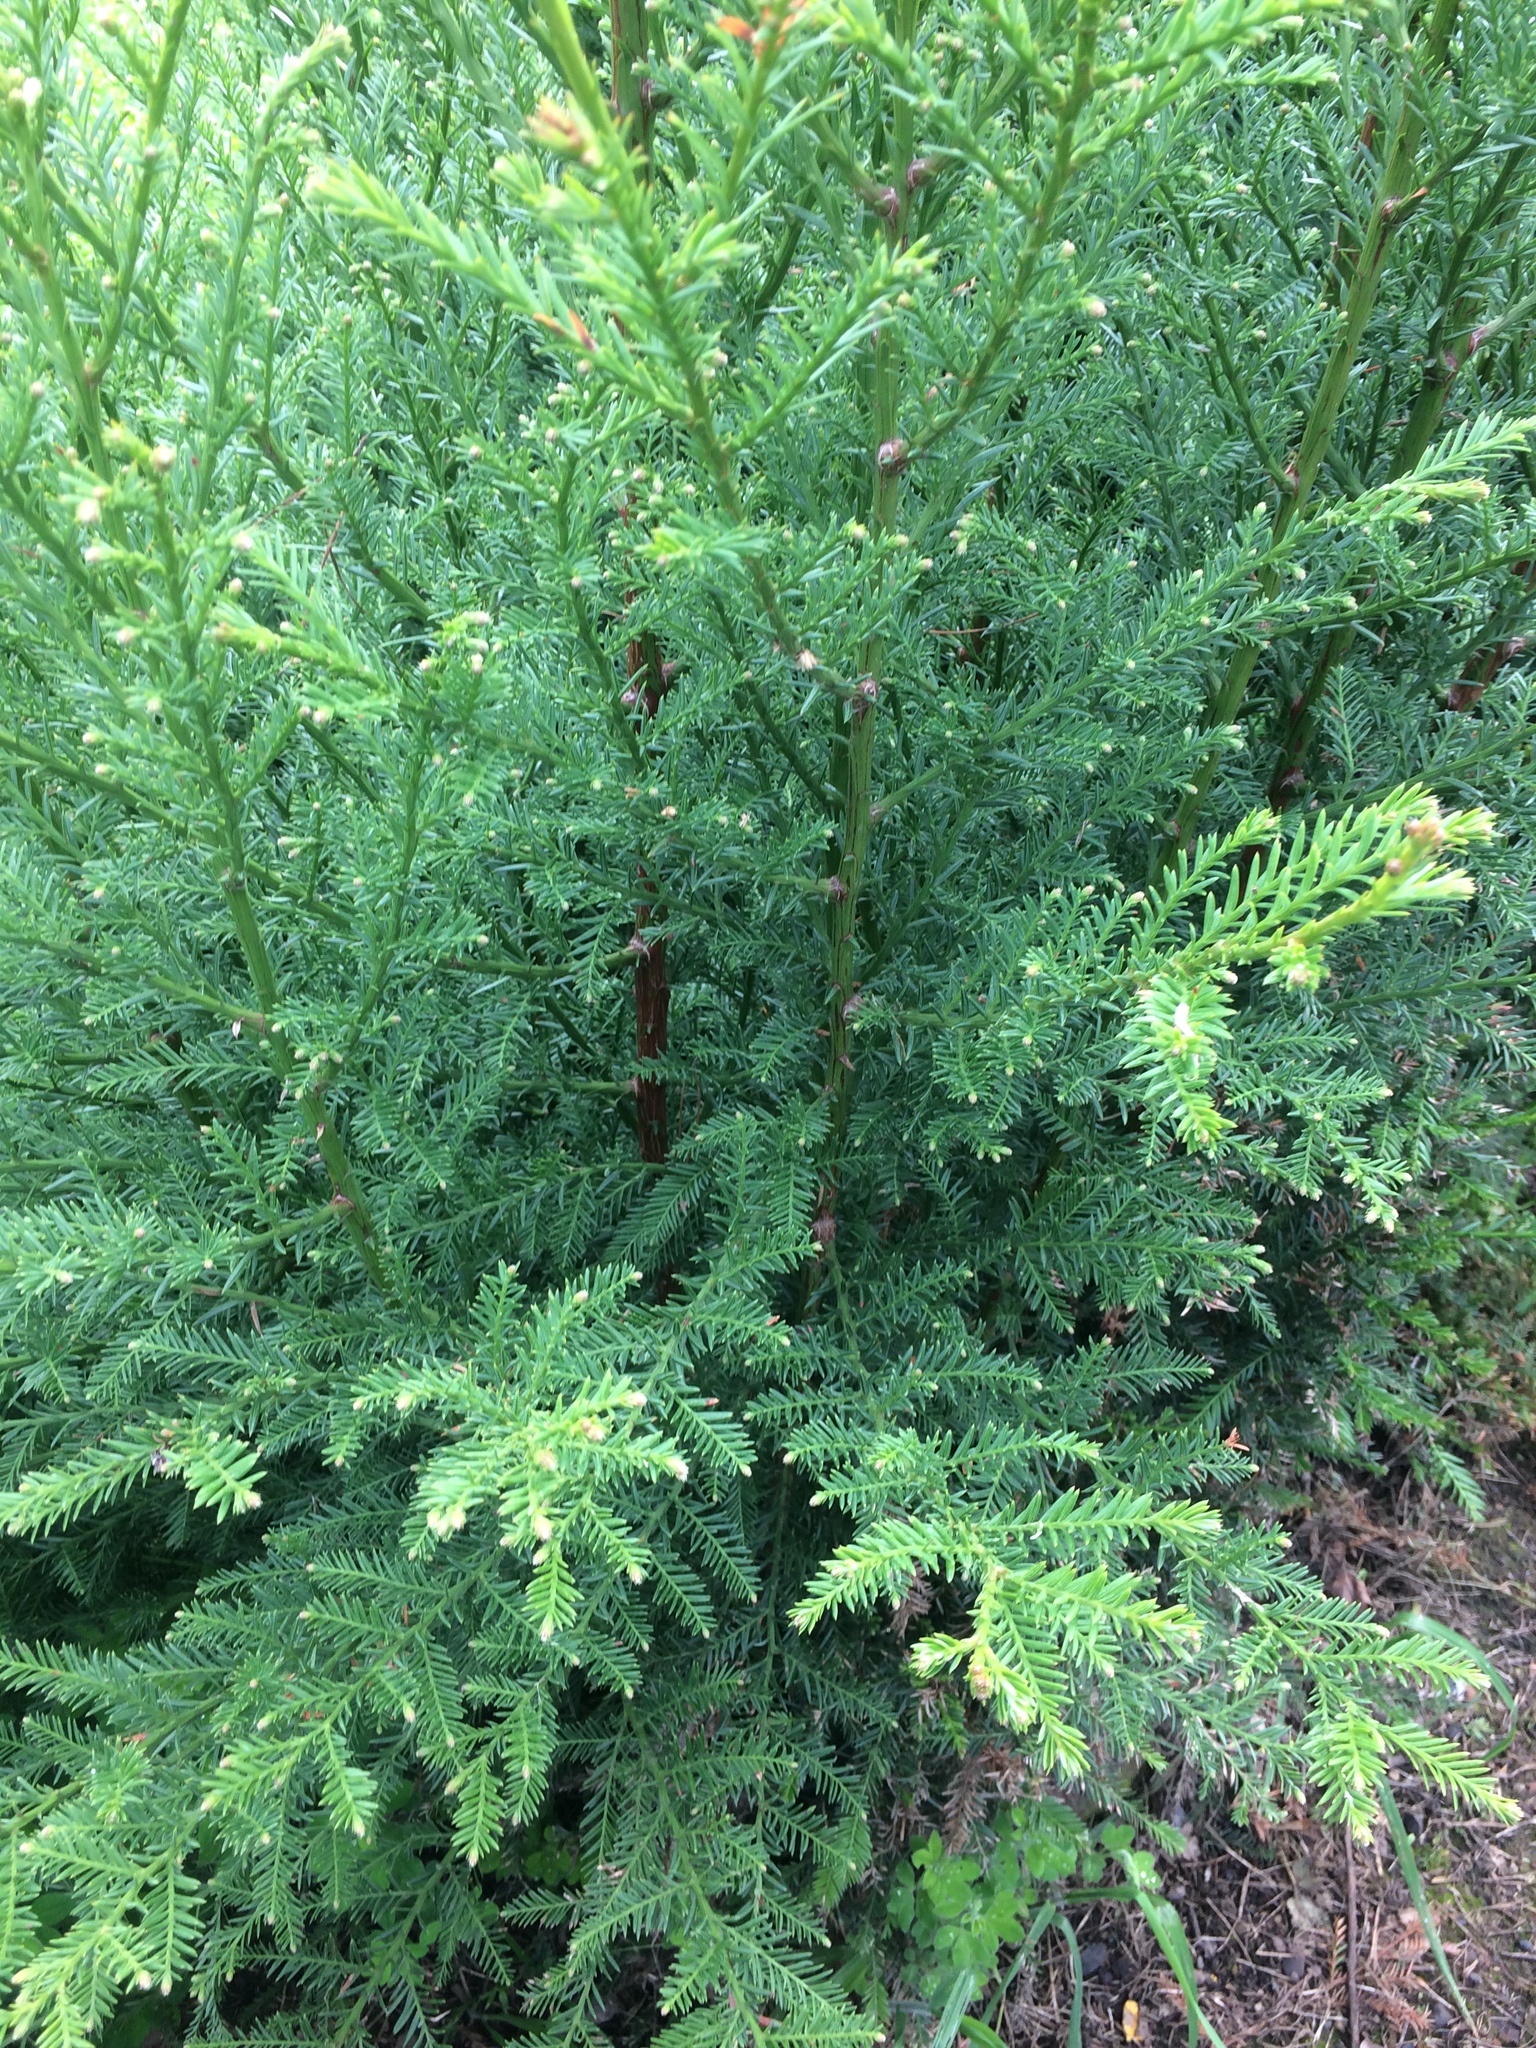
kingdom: Plantae
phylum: Tracheophyta
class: Pinopsida
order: Pinales
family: Cupressaceae
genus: Sequoia
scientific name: Sequoia sempervirens
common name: Coast redwood
